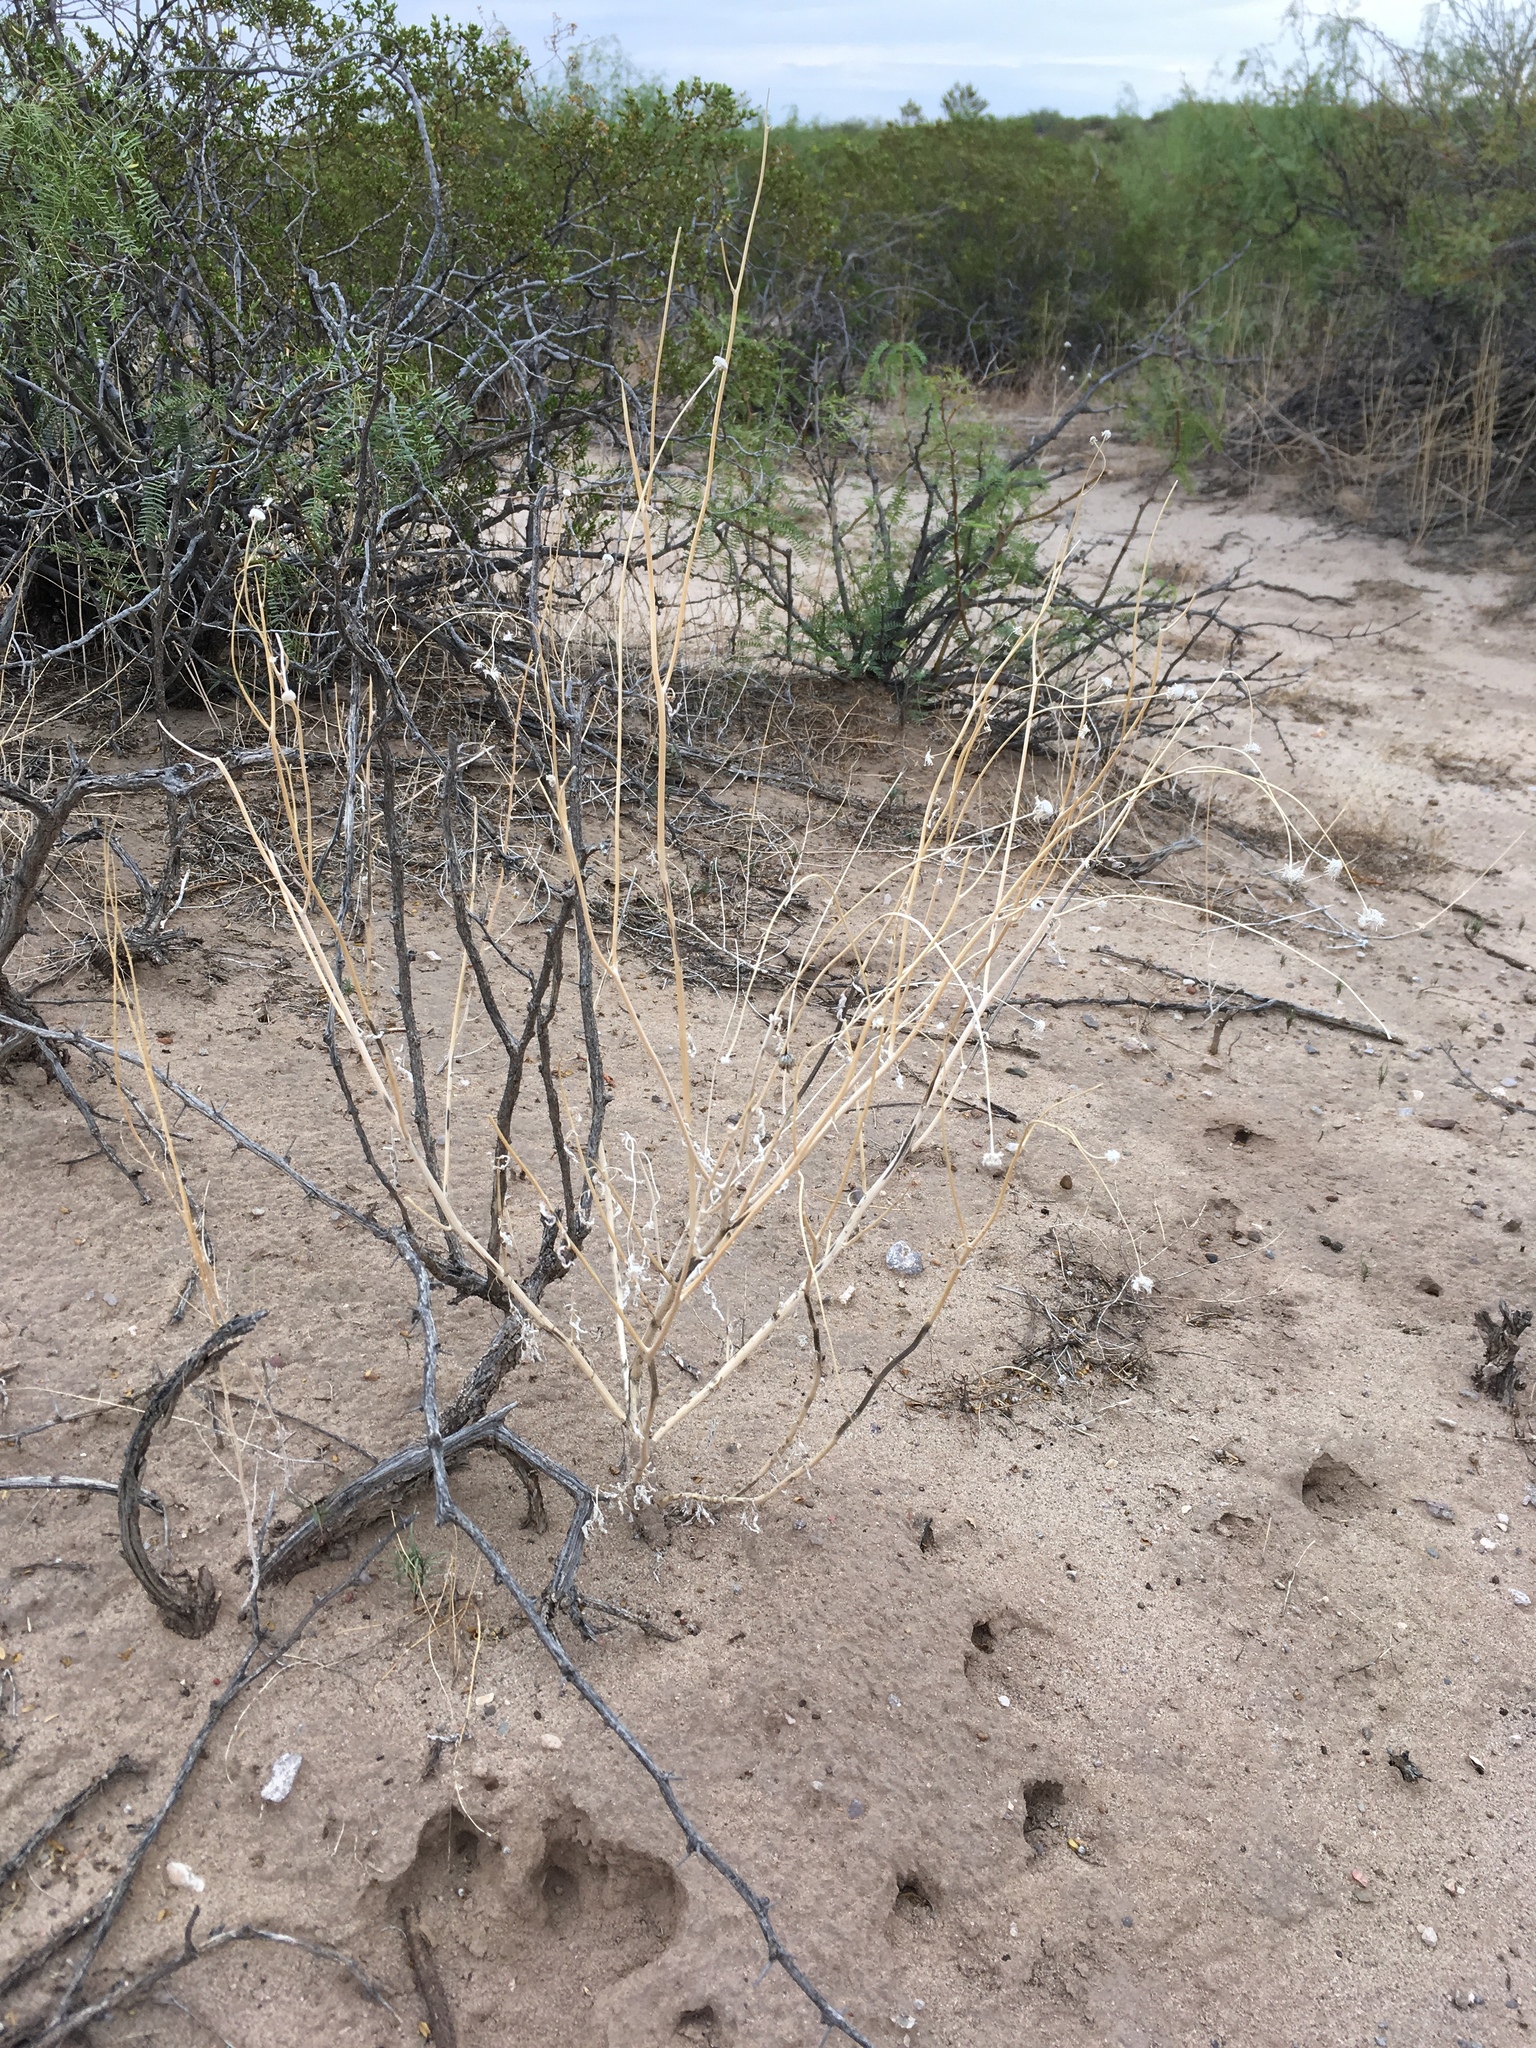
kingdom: Plantae
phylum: Tracheophyta
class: Magnoliopsida
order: Asterales
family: Asteraceae
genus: Verbesina
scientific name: Verbesina encelioides
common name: Golden crownbeard
